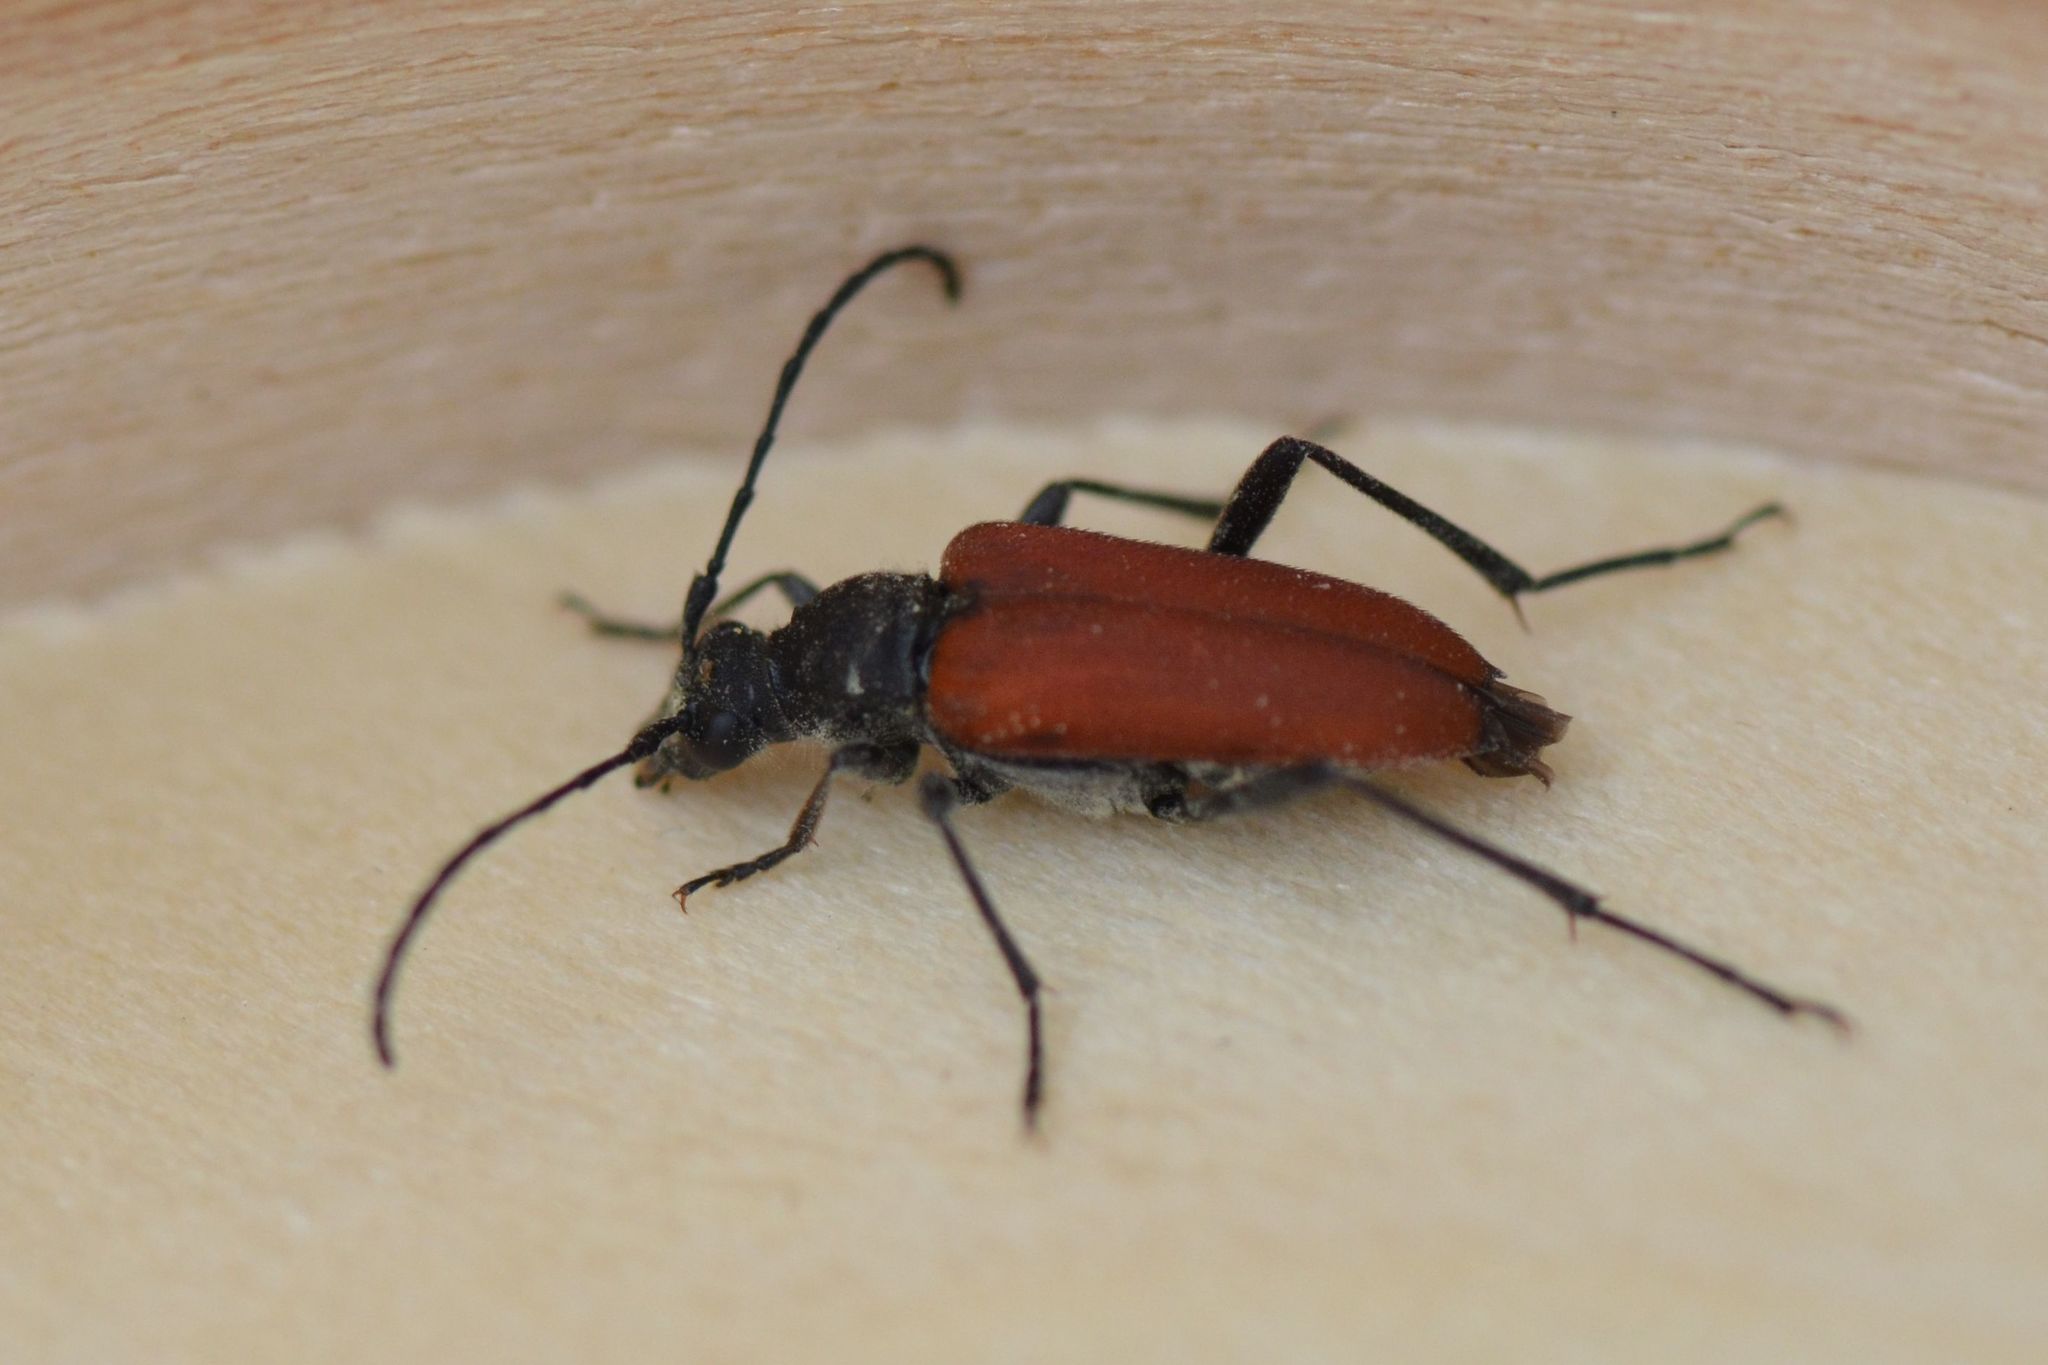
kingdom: Animalia
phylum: Arthropoda
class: Insecta
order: Coleoptera
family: Cerambycidae
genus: Anastrangalia
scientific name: Anastrangalia sanguinolenta
